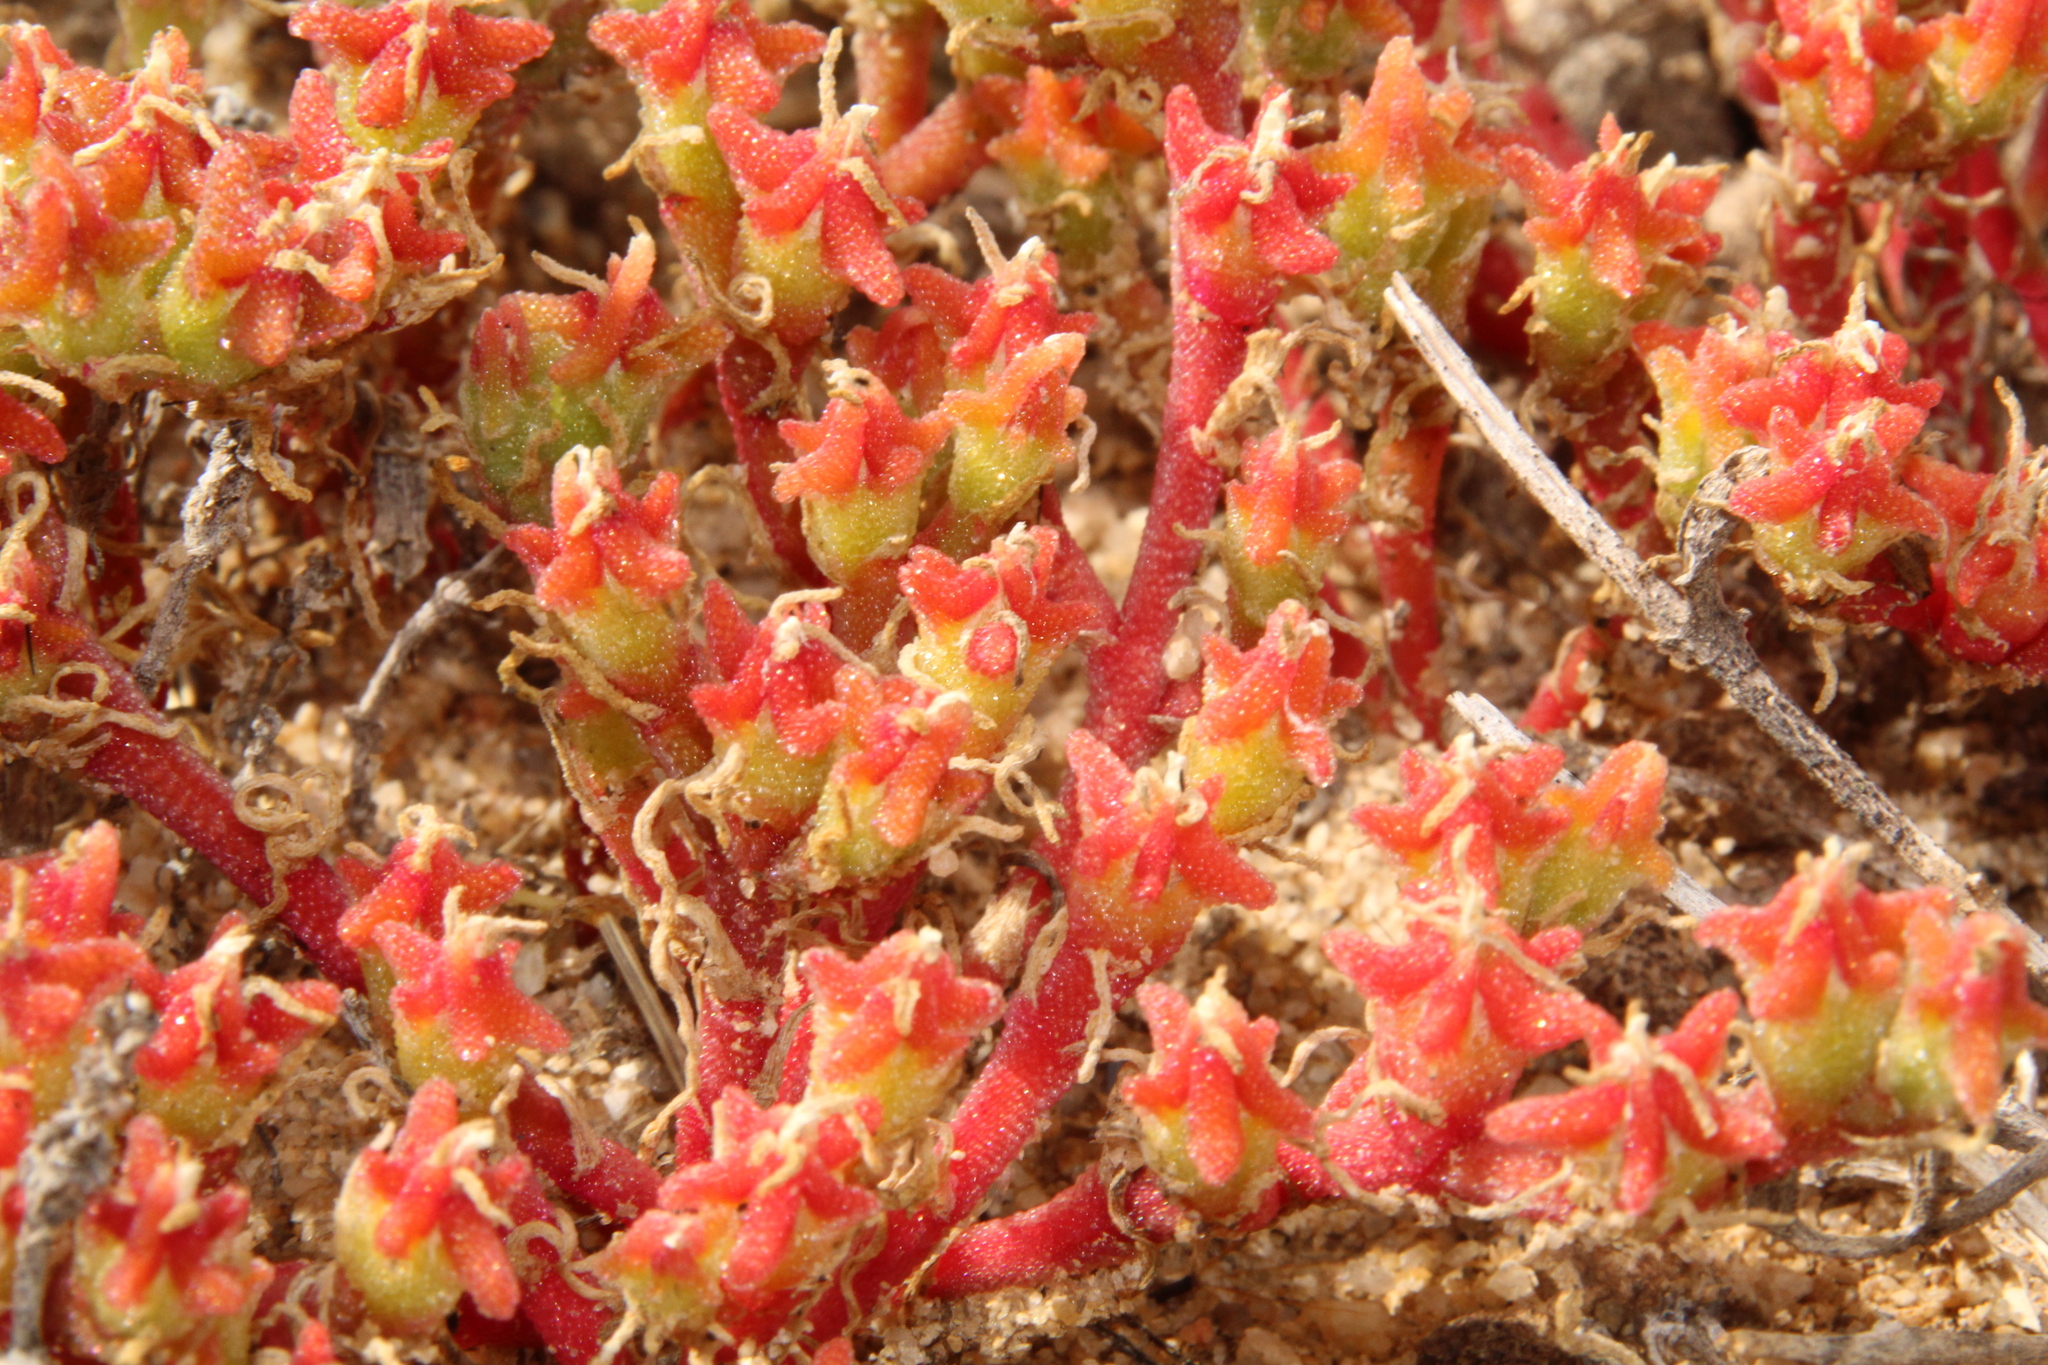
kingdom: Plantae
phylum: Tracheophyta
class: Magnoliopsida
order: Caryophyllales
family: Aizoaceae
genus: Mesembryanthemum
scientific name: Mesembryanthemum nodiflorum
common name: Slenderleaf iceplant
